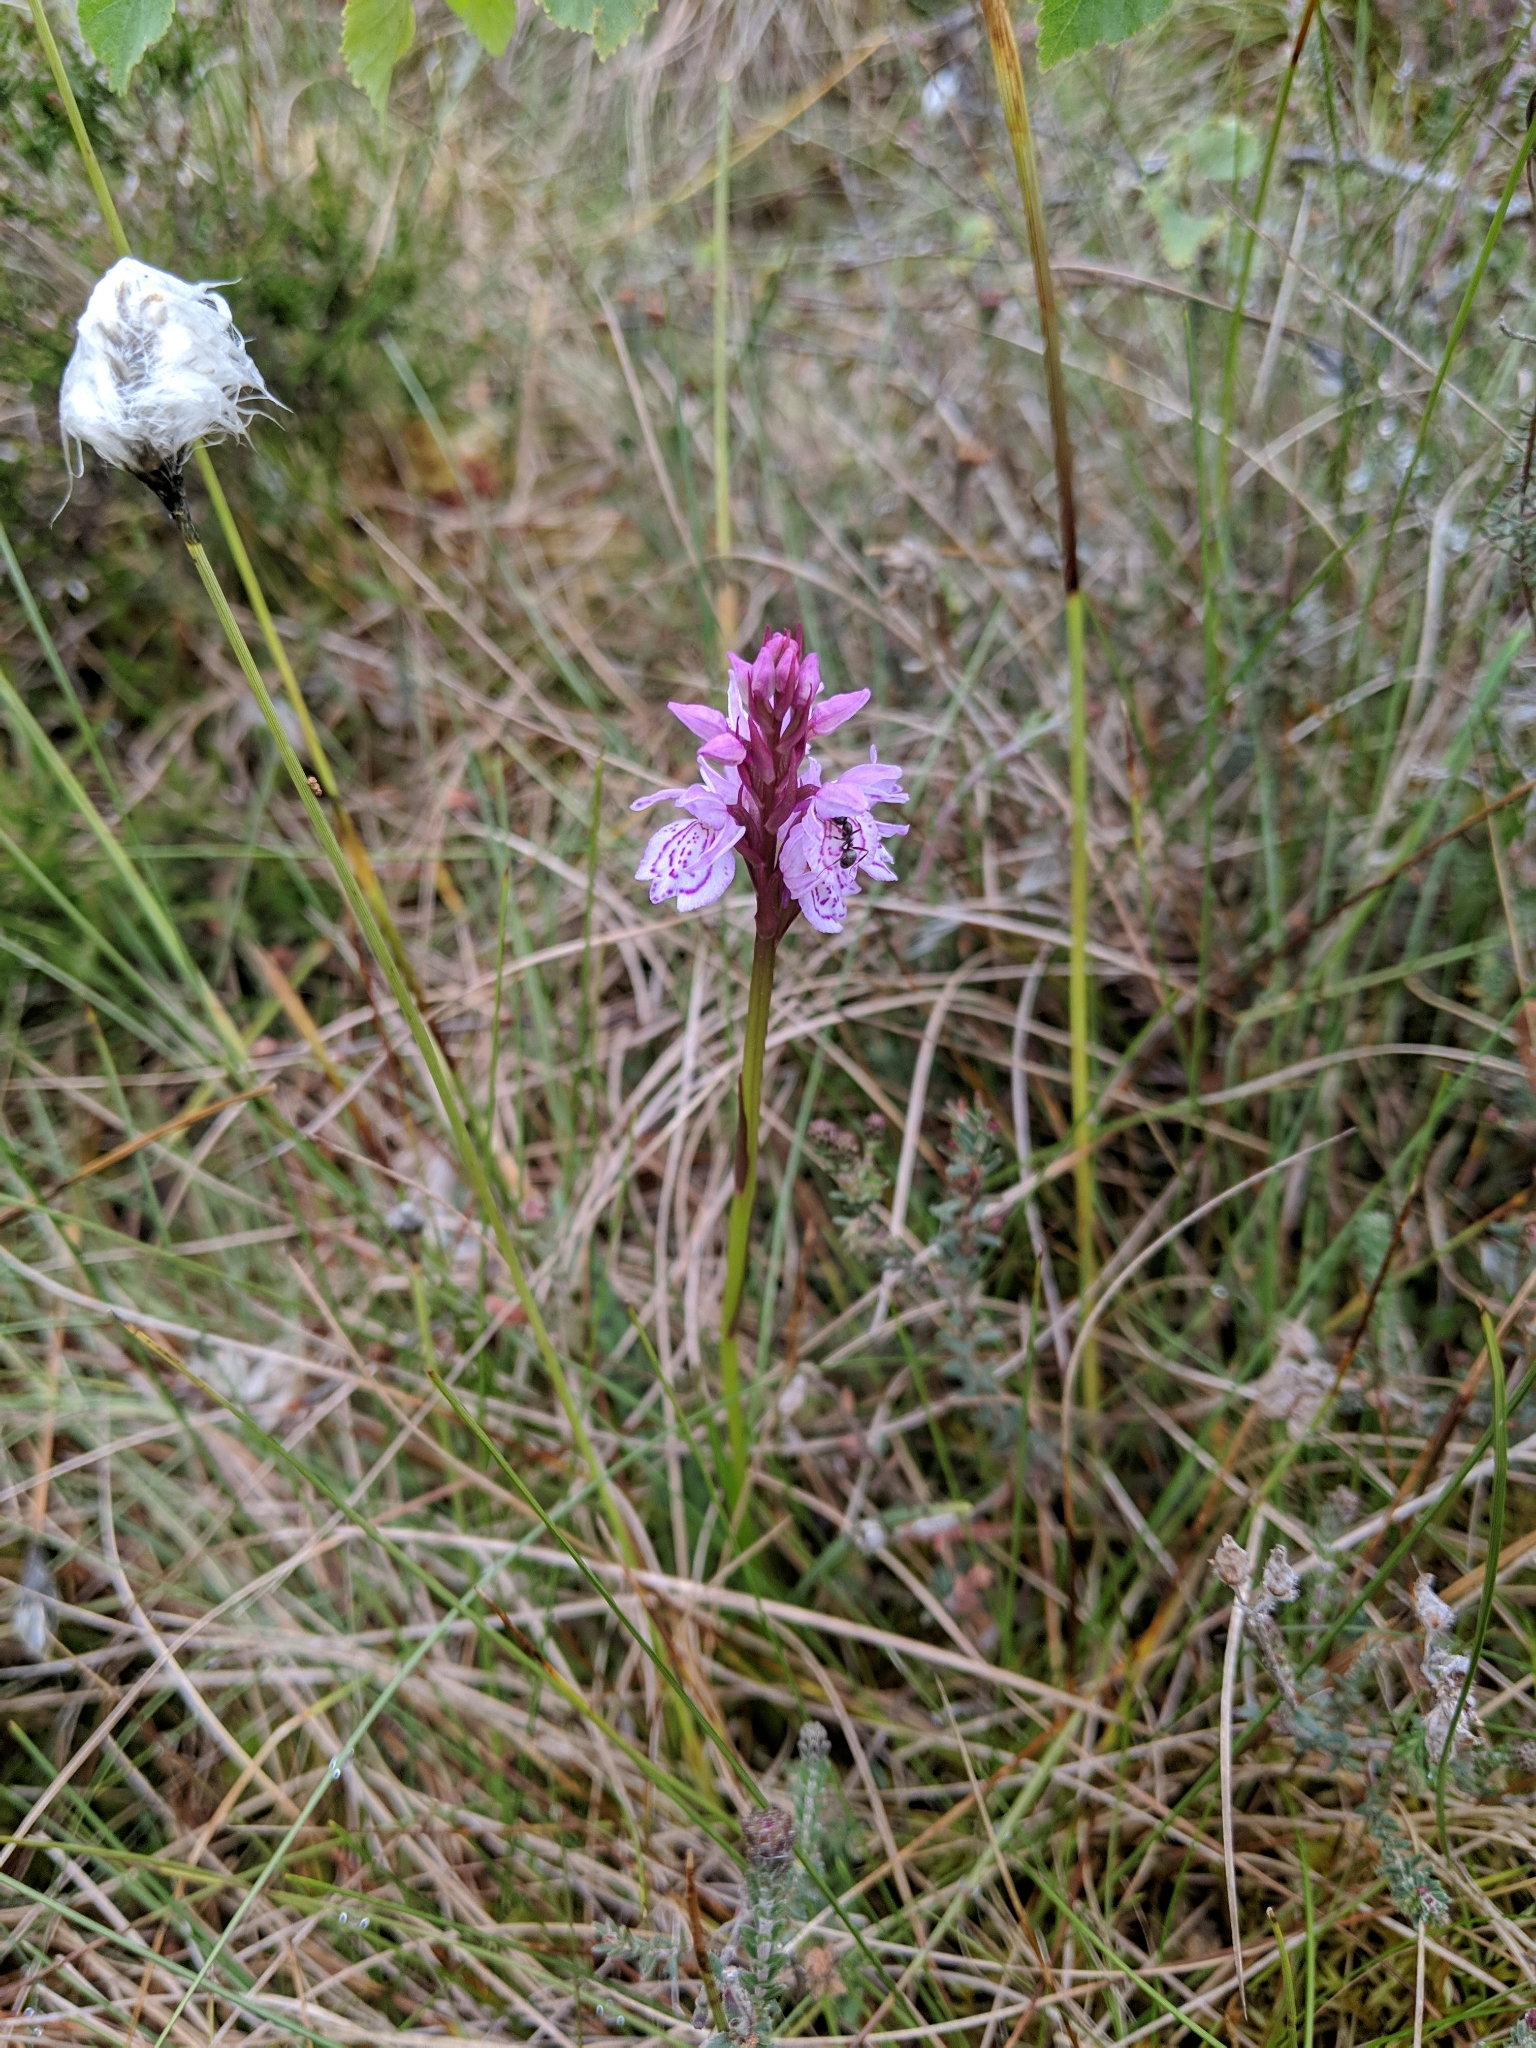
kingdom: Plantae
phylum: Tracheophyta
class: Liliopsida
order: Asparagales
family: Orchidaceae
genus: Dactylorhiza
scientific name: Dactylorhiza maculata
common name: Heath spotted-orchid
